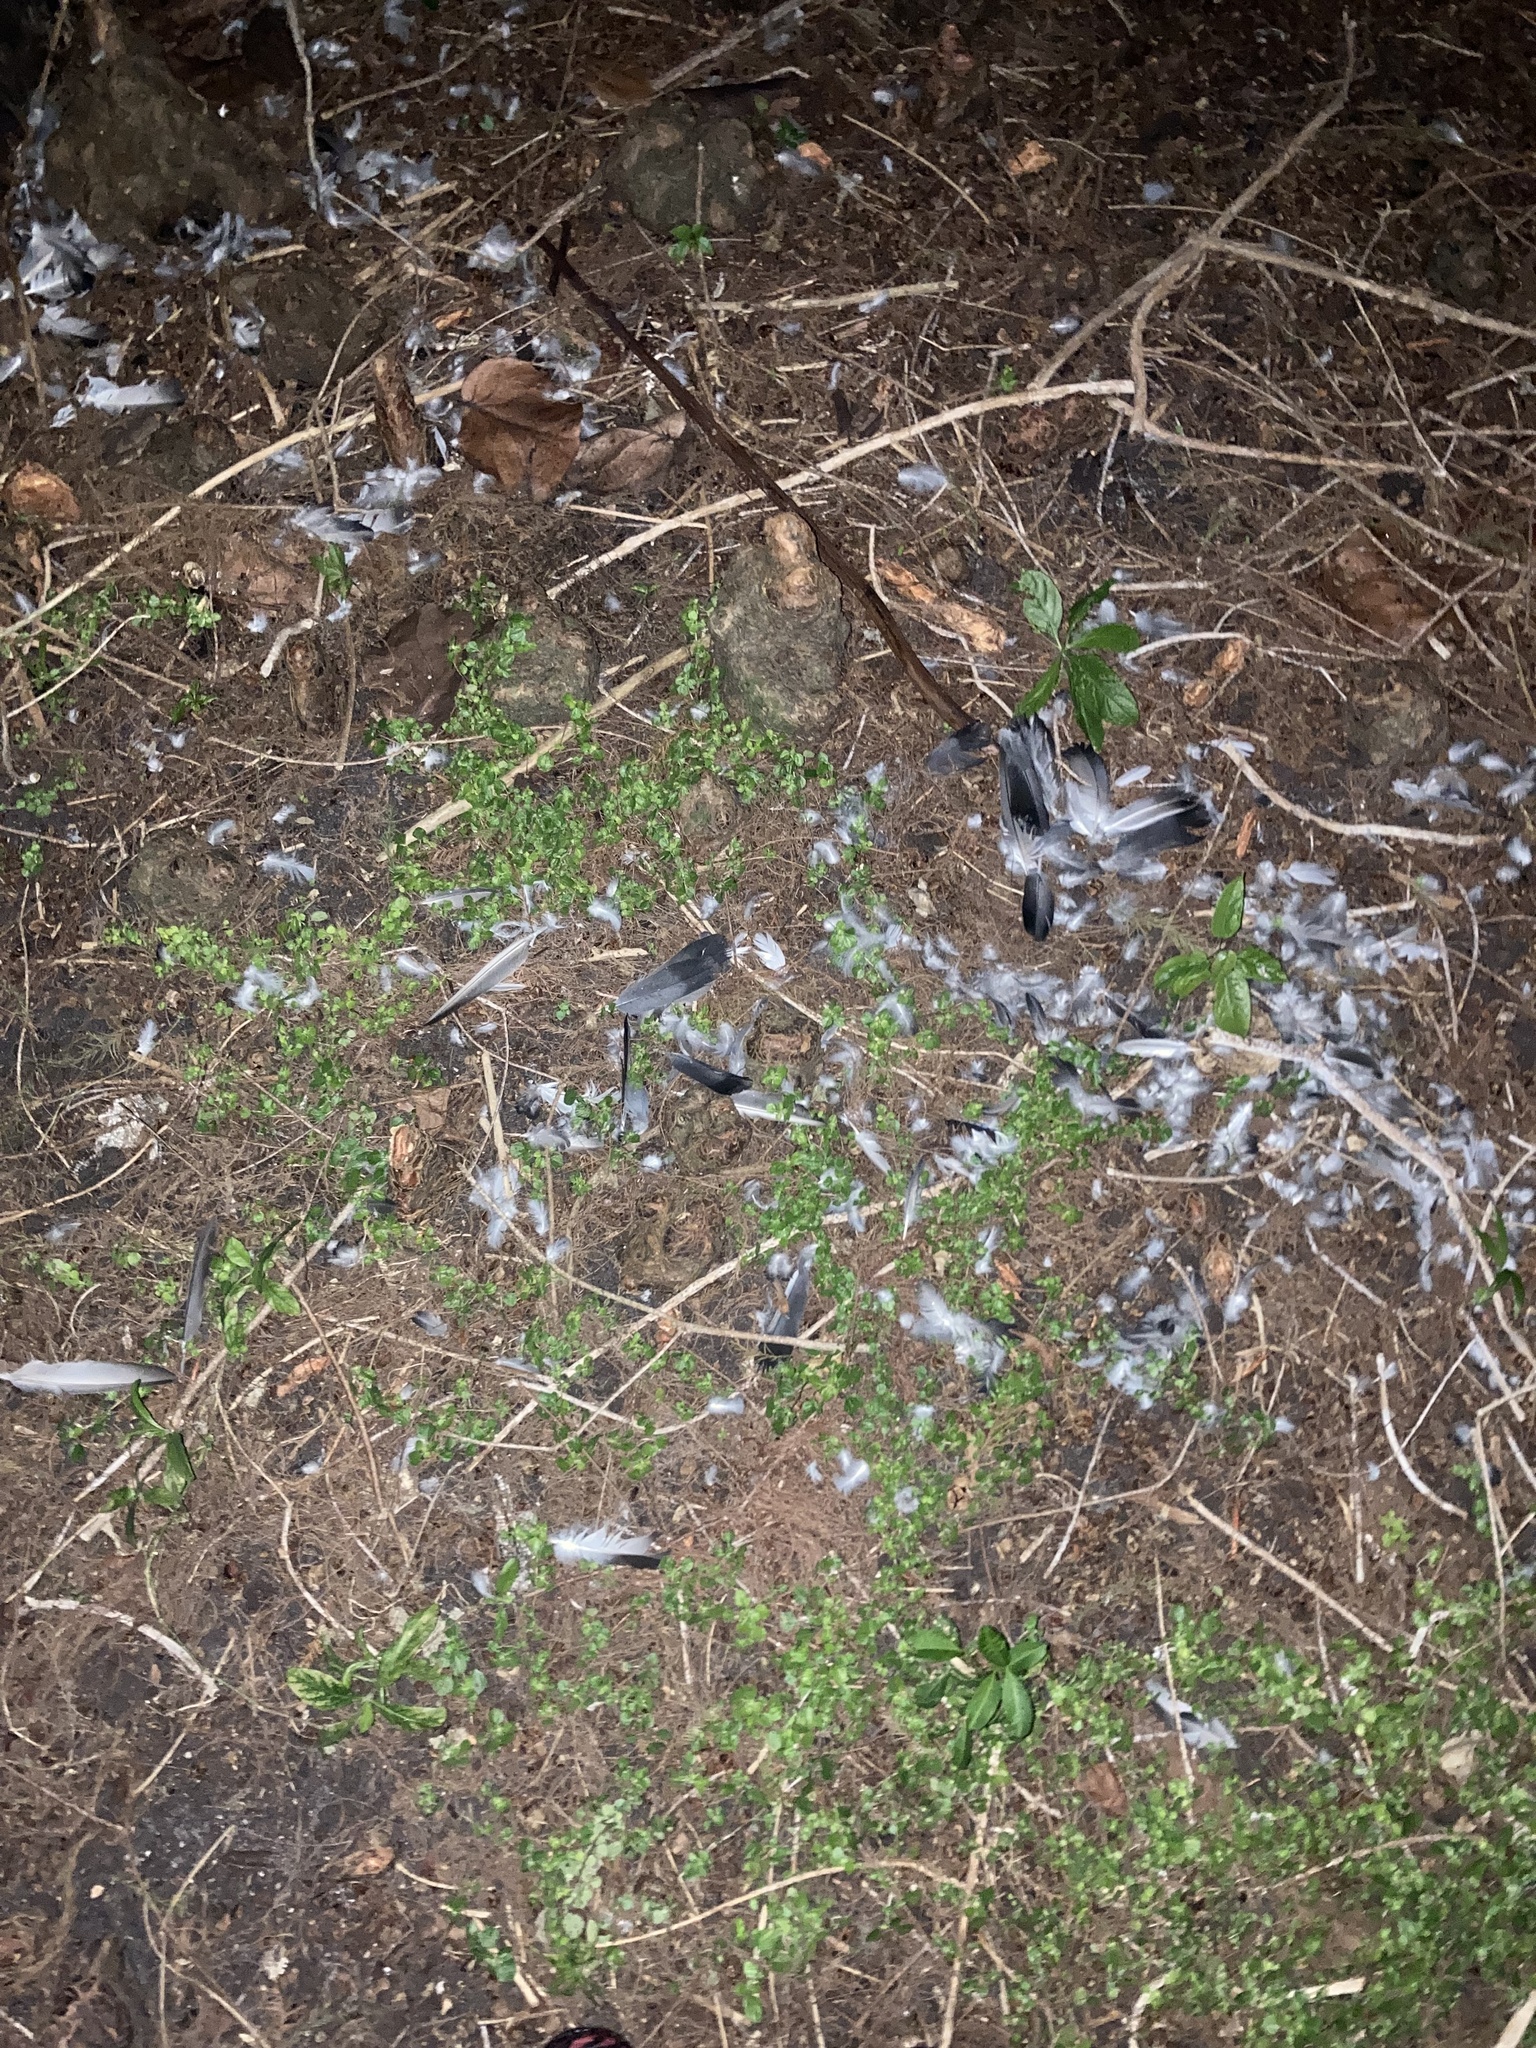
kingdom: Animalia
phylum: Chordata
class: Aves
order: Columbiformes
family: Columbidae
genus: Columba
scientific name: Columba livia
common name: Rock pigeon
